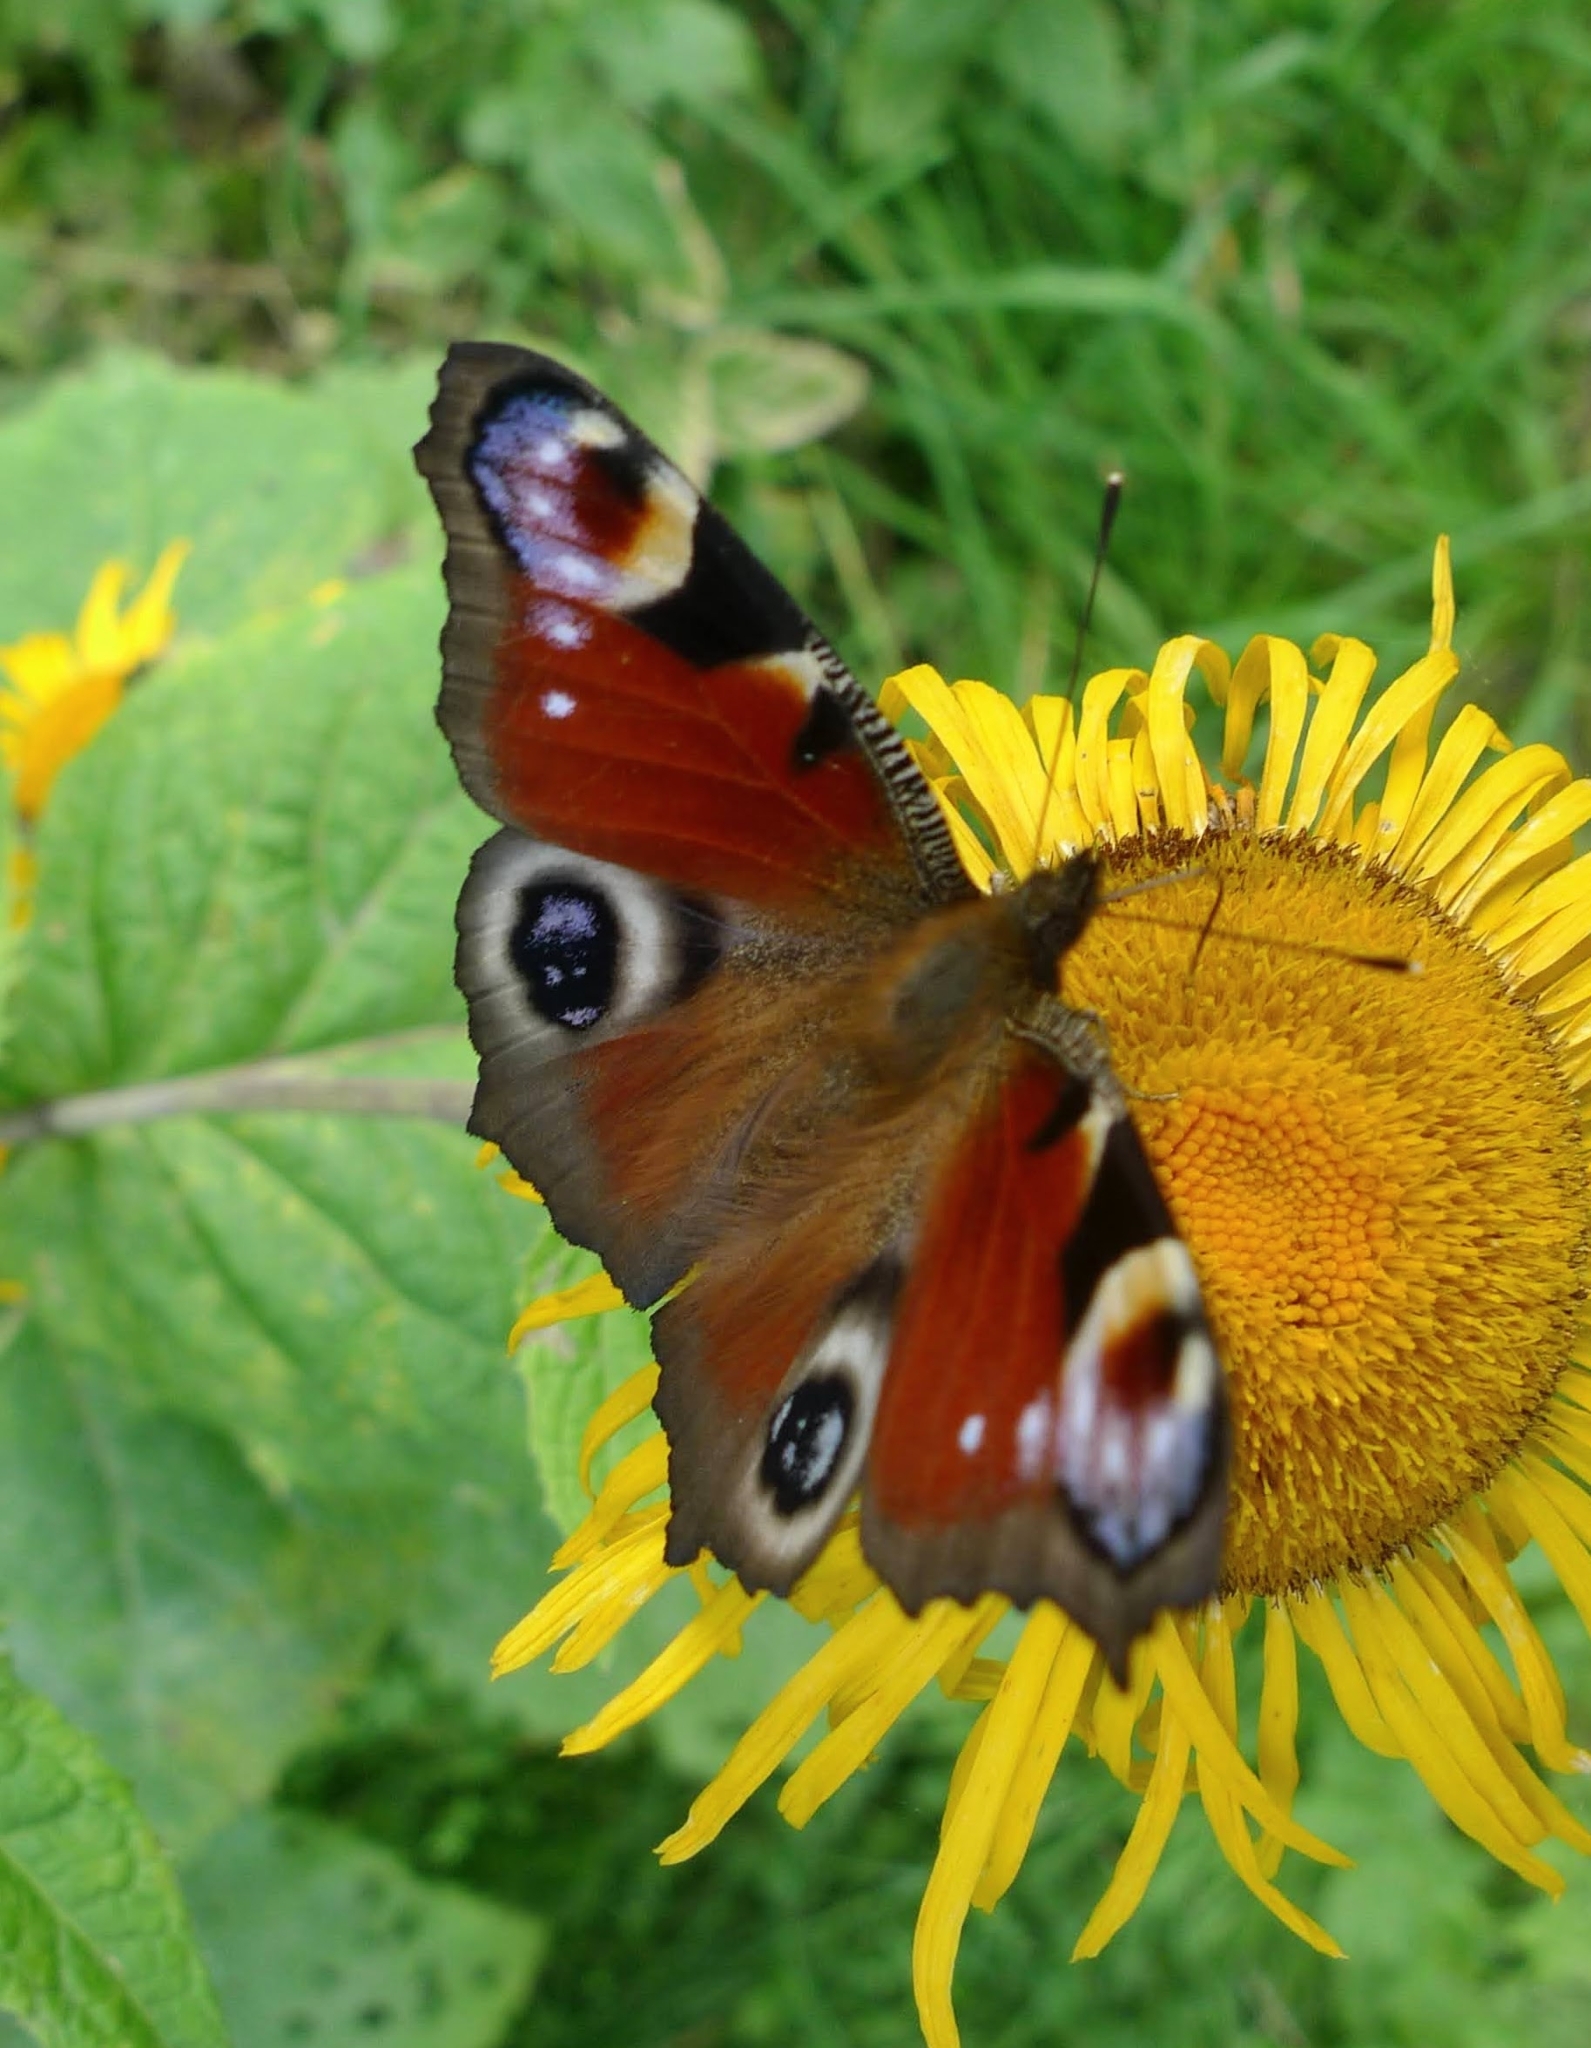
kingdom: Animalia
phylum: Arthropoda
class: Insecta
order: Lepidoptera
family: Nymphalidae
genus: Aglais
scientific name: Aglais io
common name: Peacock
